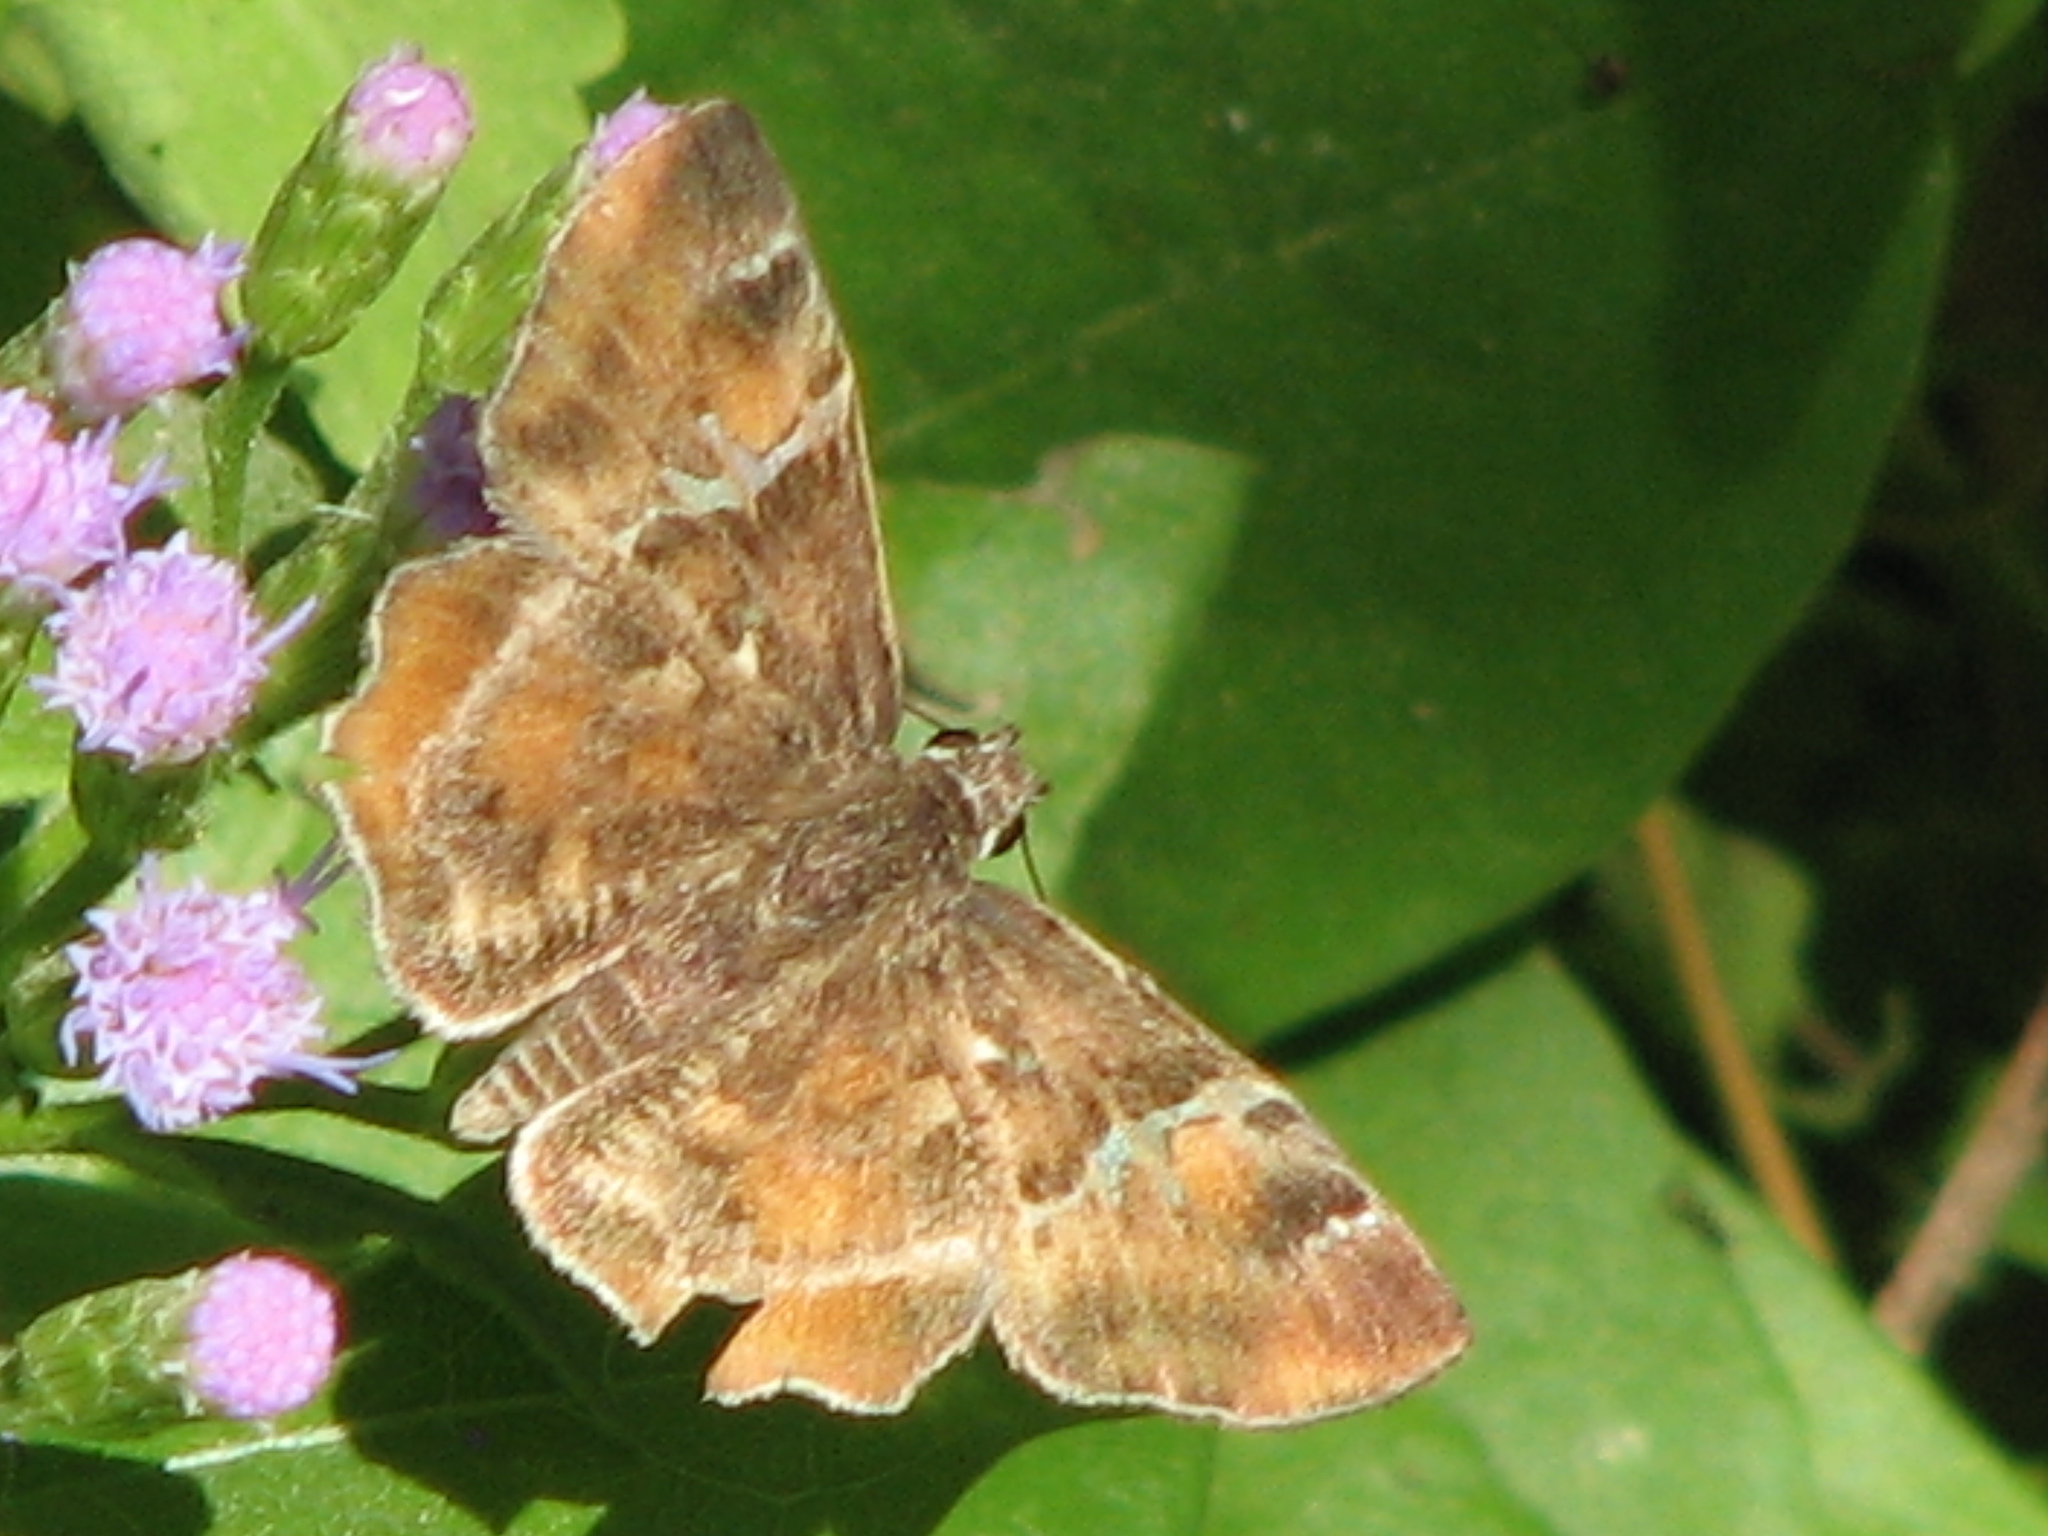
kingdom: Animalia
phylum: Arthropoda
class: Insecta
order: Lepidoptera
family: Hesperiidae
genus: Systasea
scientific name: Systasea pulverulenta
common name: Texas powdered skipper
